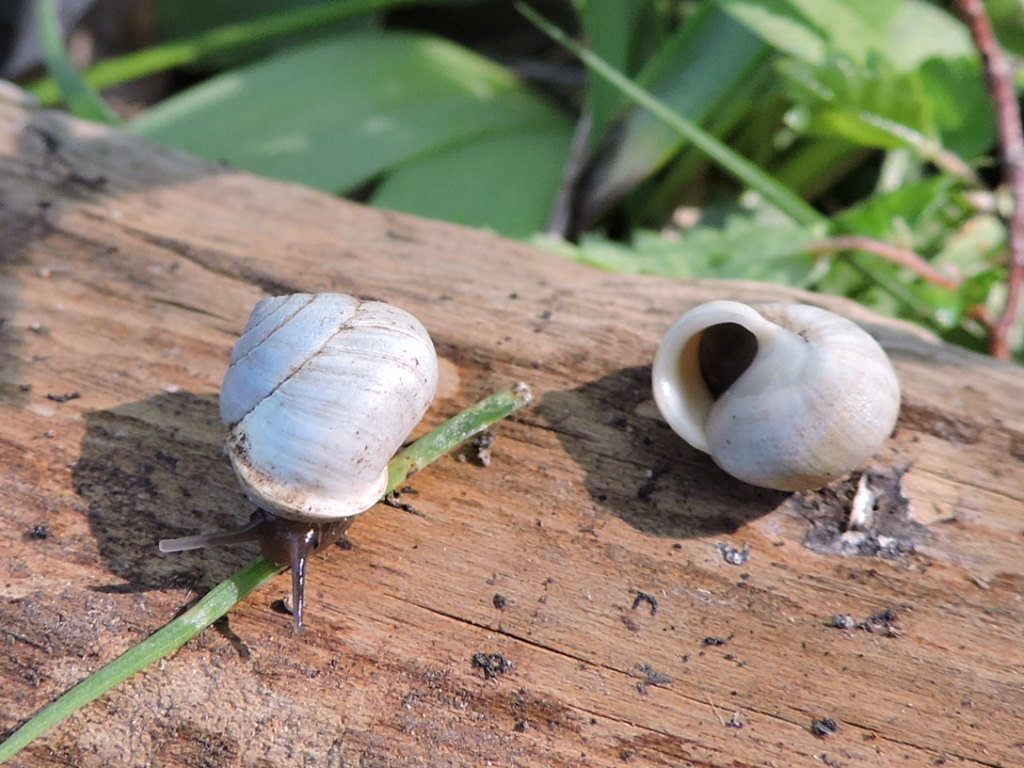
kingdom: Animalia
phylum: Mollusca
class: Gastropoda
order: Cycloneritida
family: Helicinidae
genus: Helicina
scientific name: Helicina orbiculata
